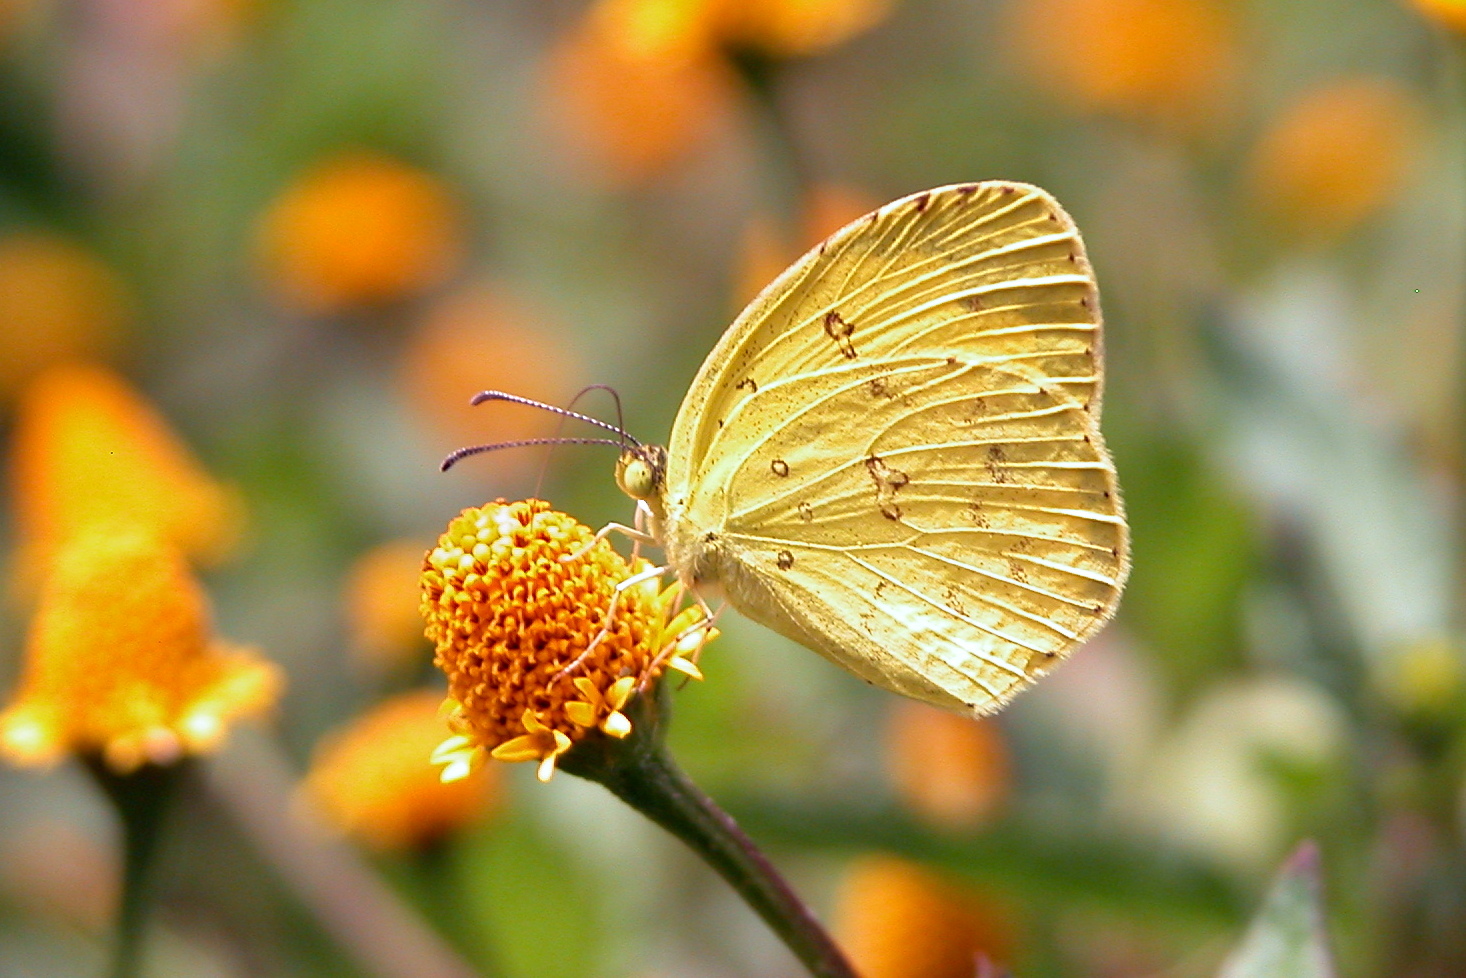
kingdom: Animalia
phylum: Arthropoda
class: Insecta
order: Lepidoptera
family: Pieridae
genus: Eurema
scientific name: Eurema hecabe
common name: Pale grass yellow
